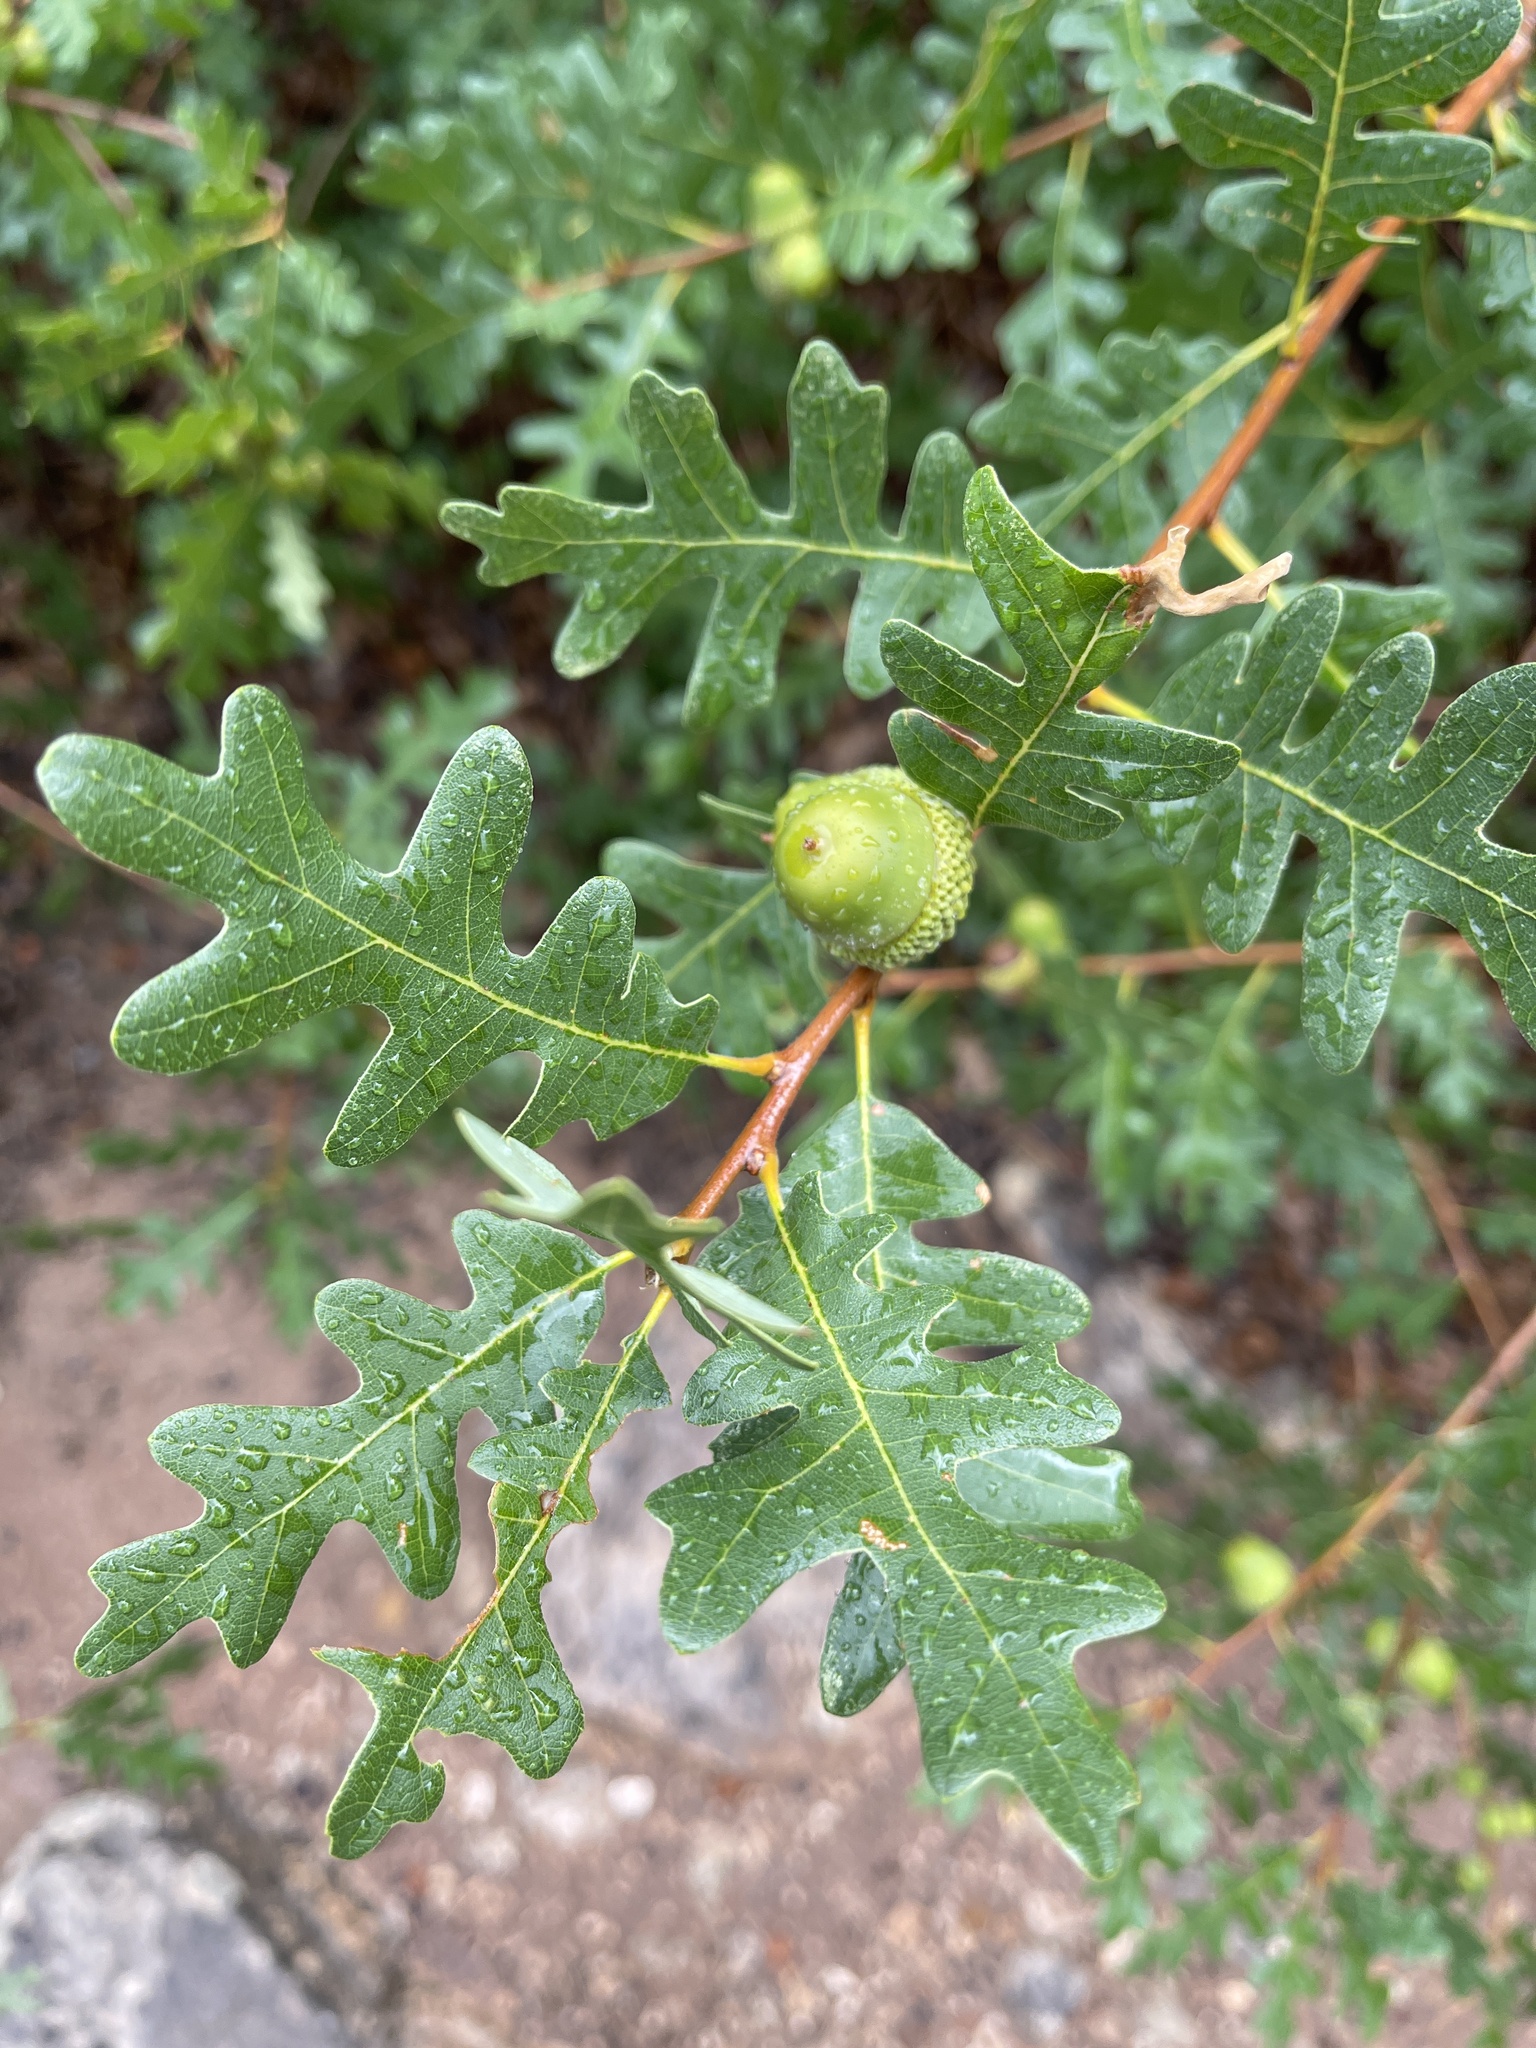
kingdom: Plantae
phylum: Tracheophyta
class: Magnoliopsida
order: Fagales
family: Fagaceae
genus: Quercus
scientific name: Quercus gambelii
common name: Gambel oak
